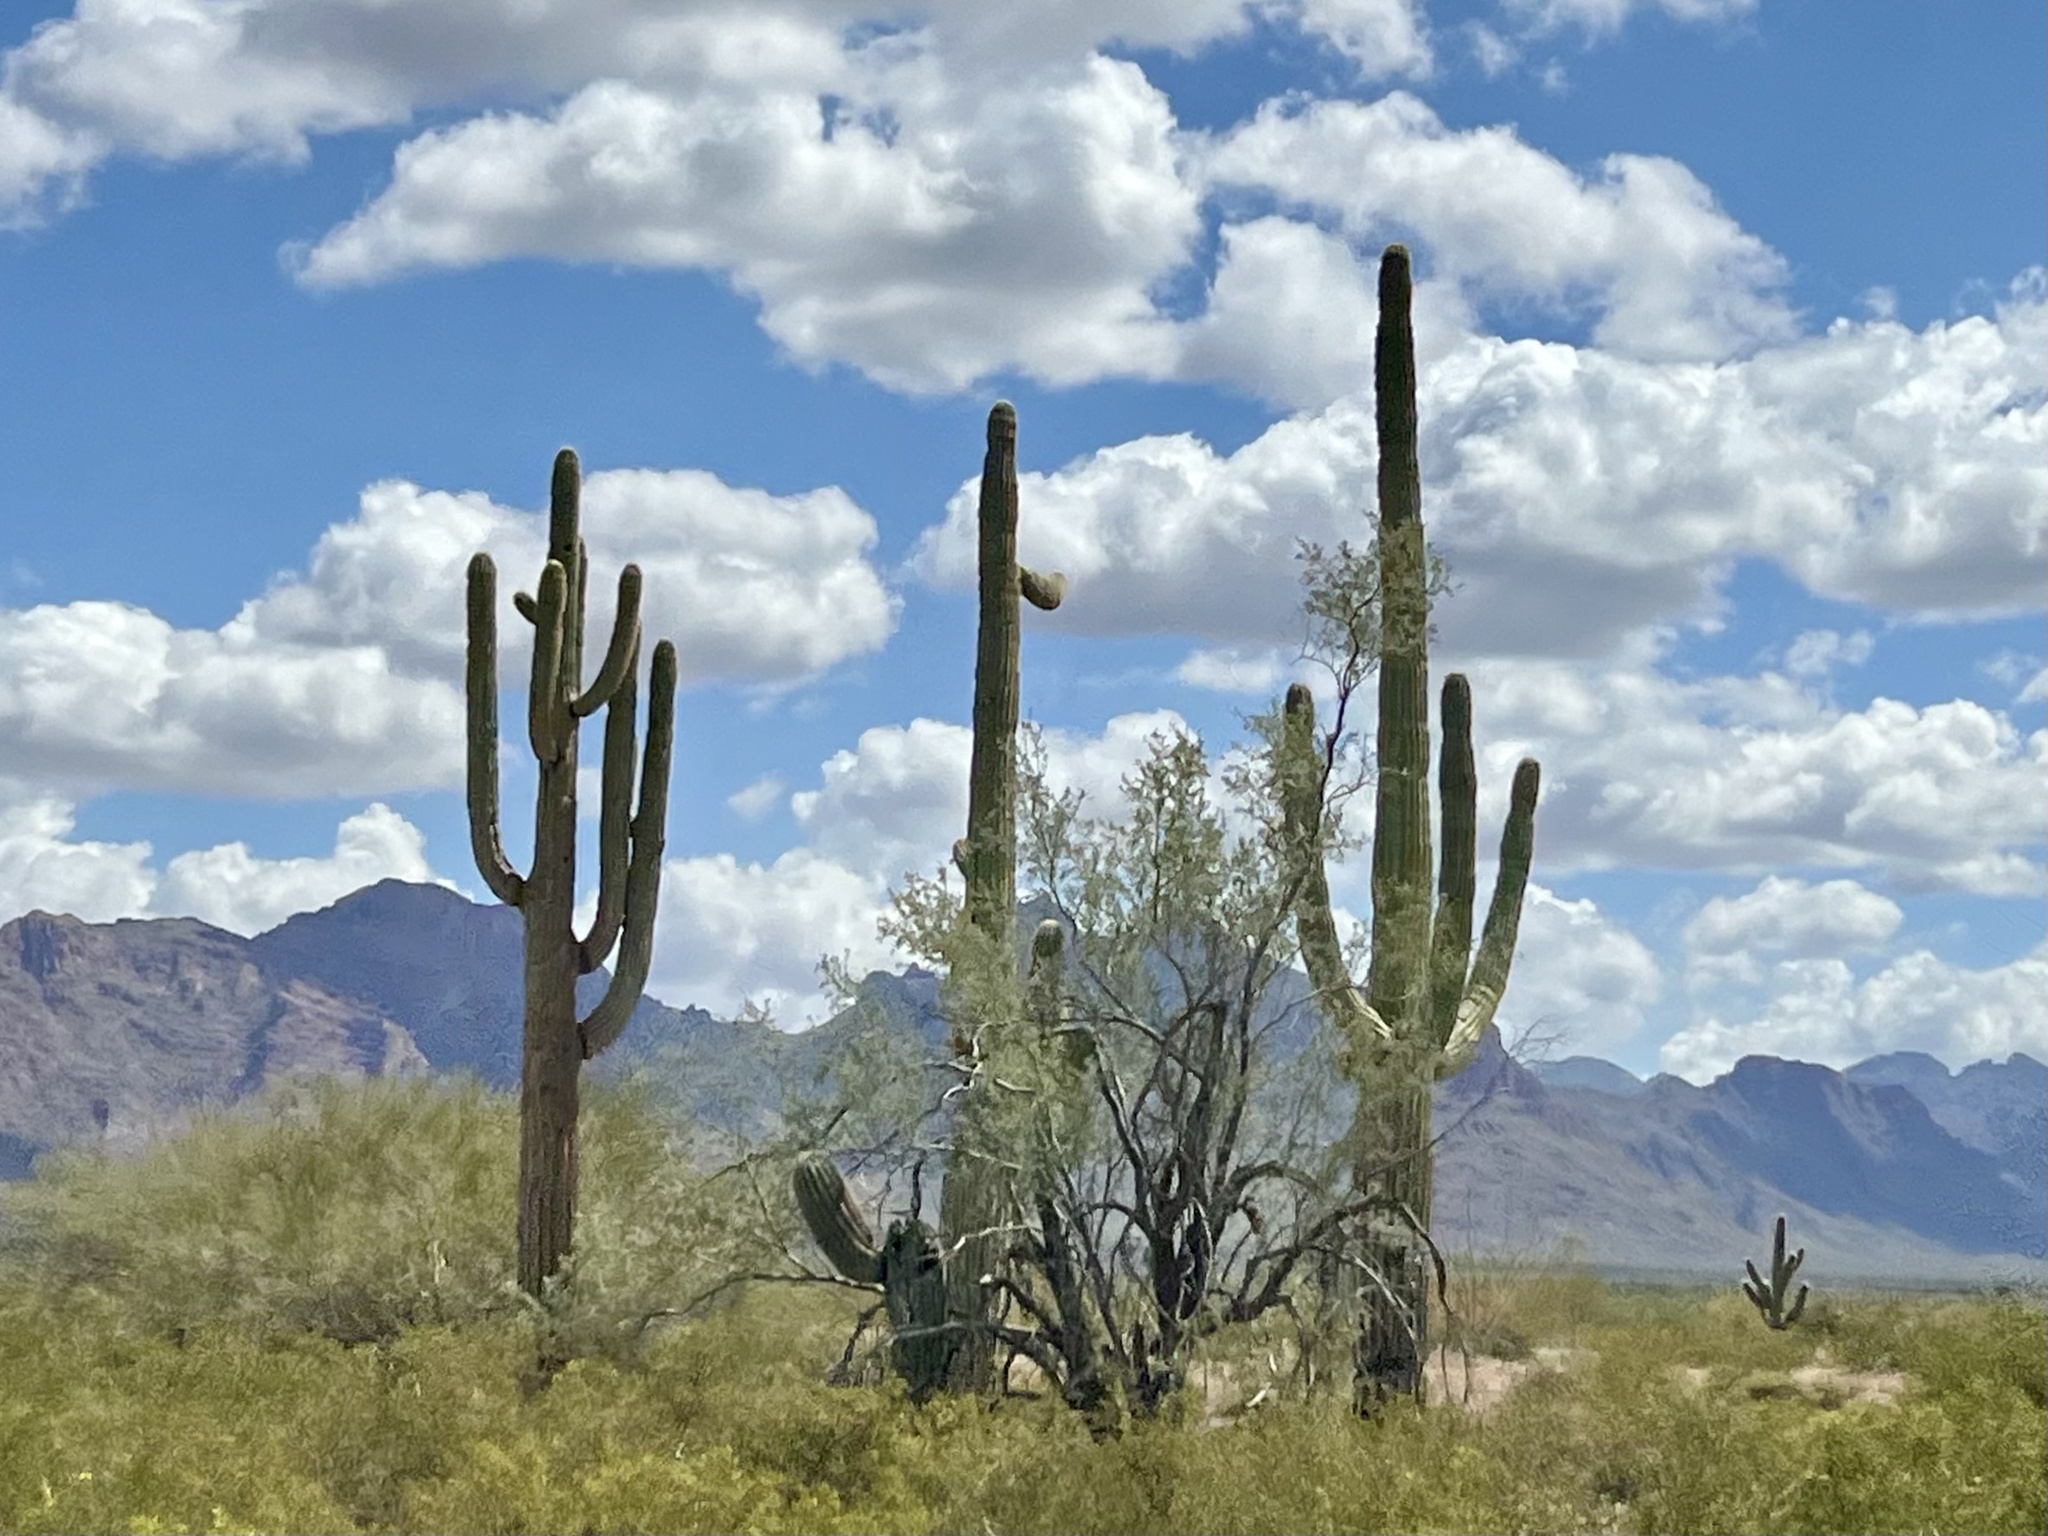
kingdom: Plantae
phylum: Tracheophyta
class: Magnoliopsida
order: Caryophyllales
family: Cactaceae
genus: Carnegiea
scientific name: Carnegiea gigantea
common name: Saguaro
